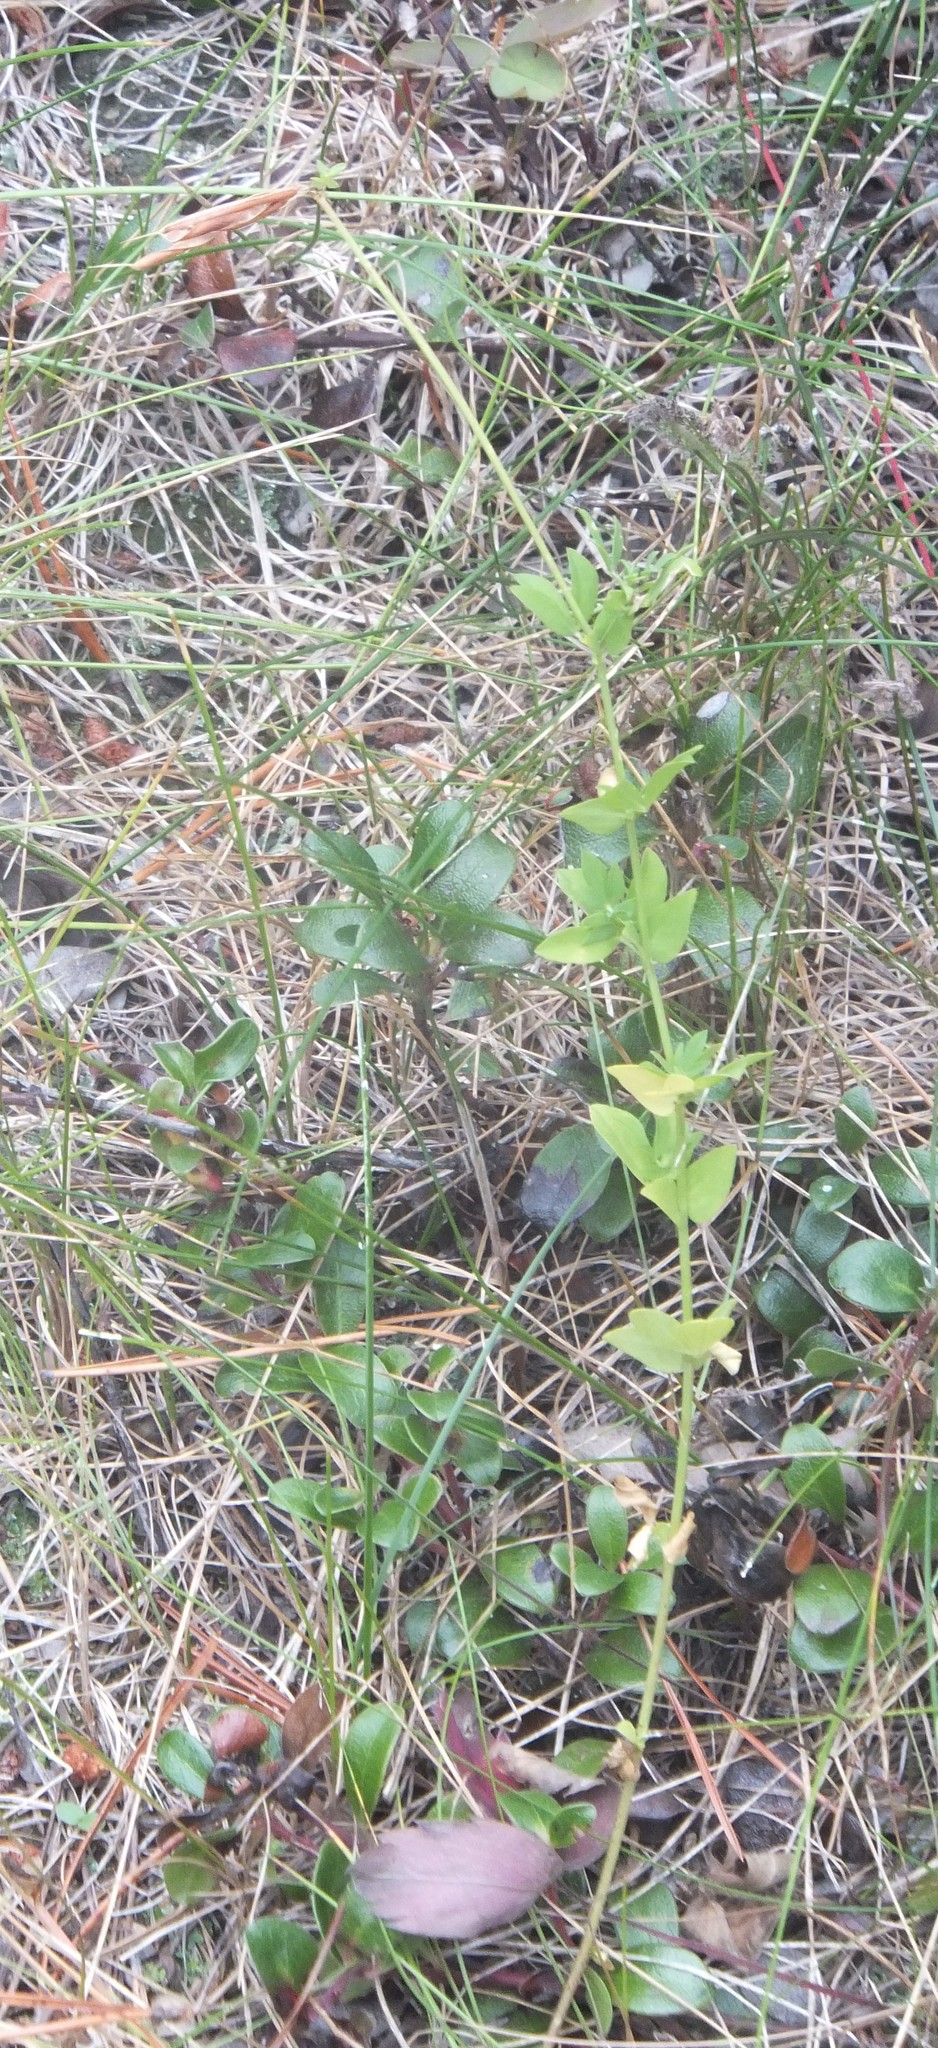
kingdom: Plantae
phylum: Tracheophyta
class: Magnoliopsida
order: Fabales
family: Fabaceae
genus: Lotus
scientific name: Lotus corniculatus
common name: Common bird's-foot-trefoil
